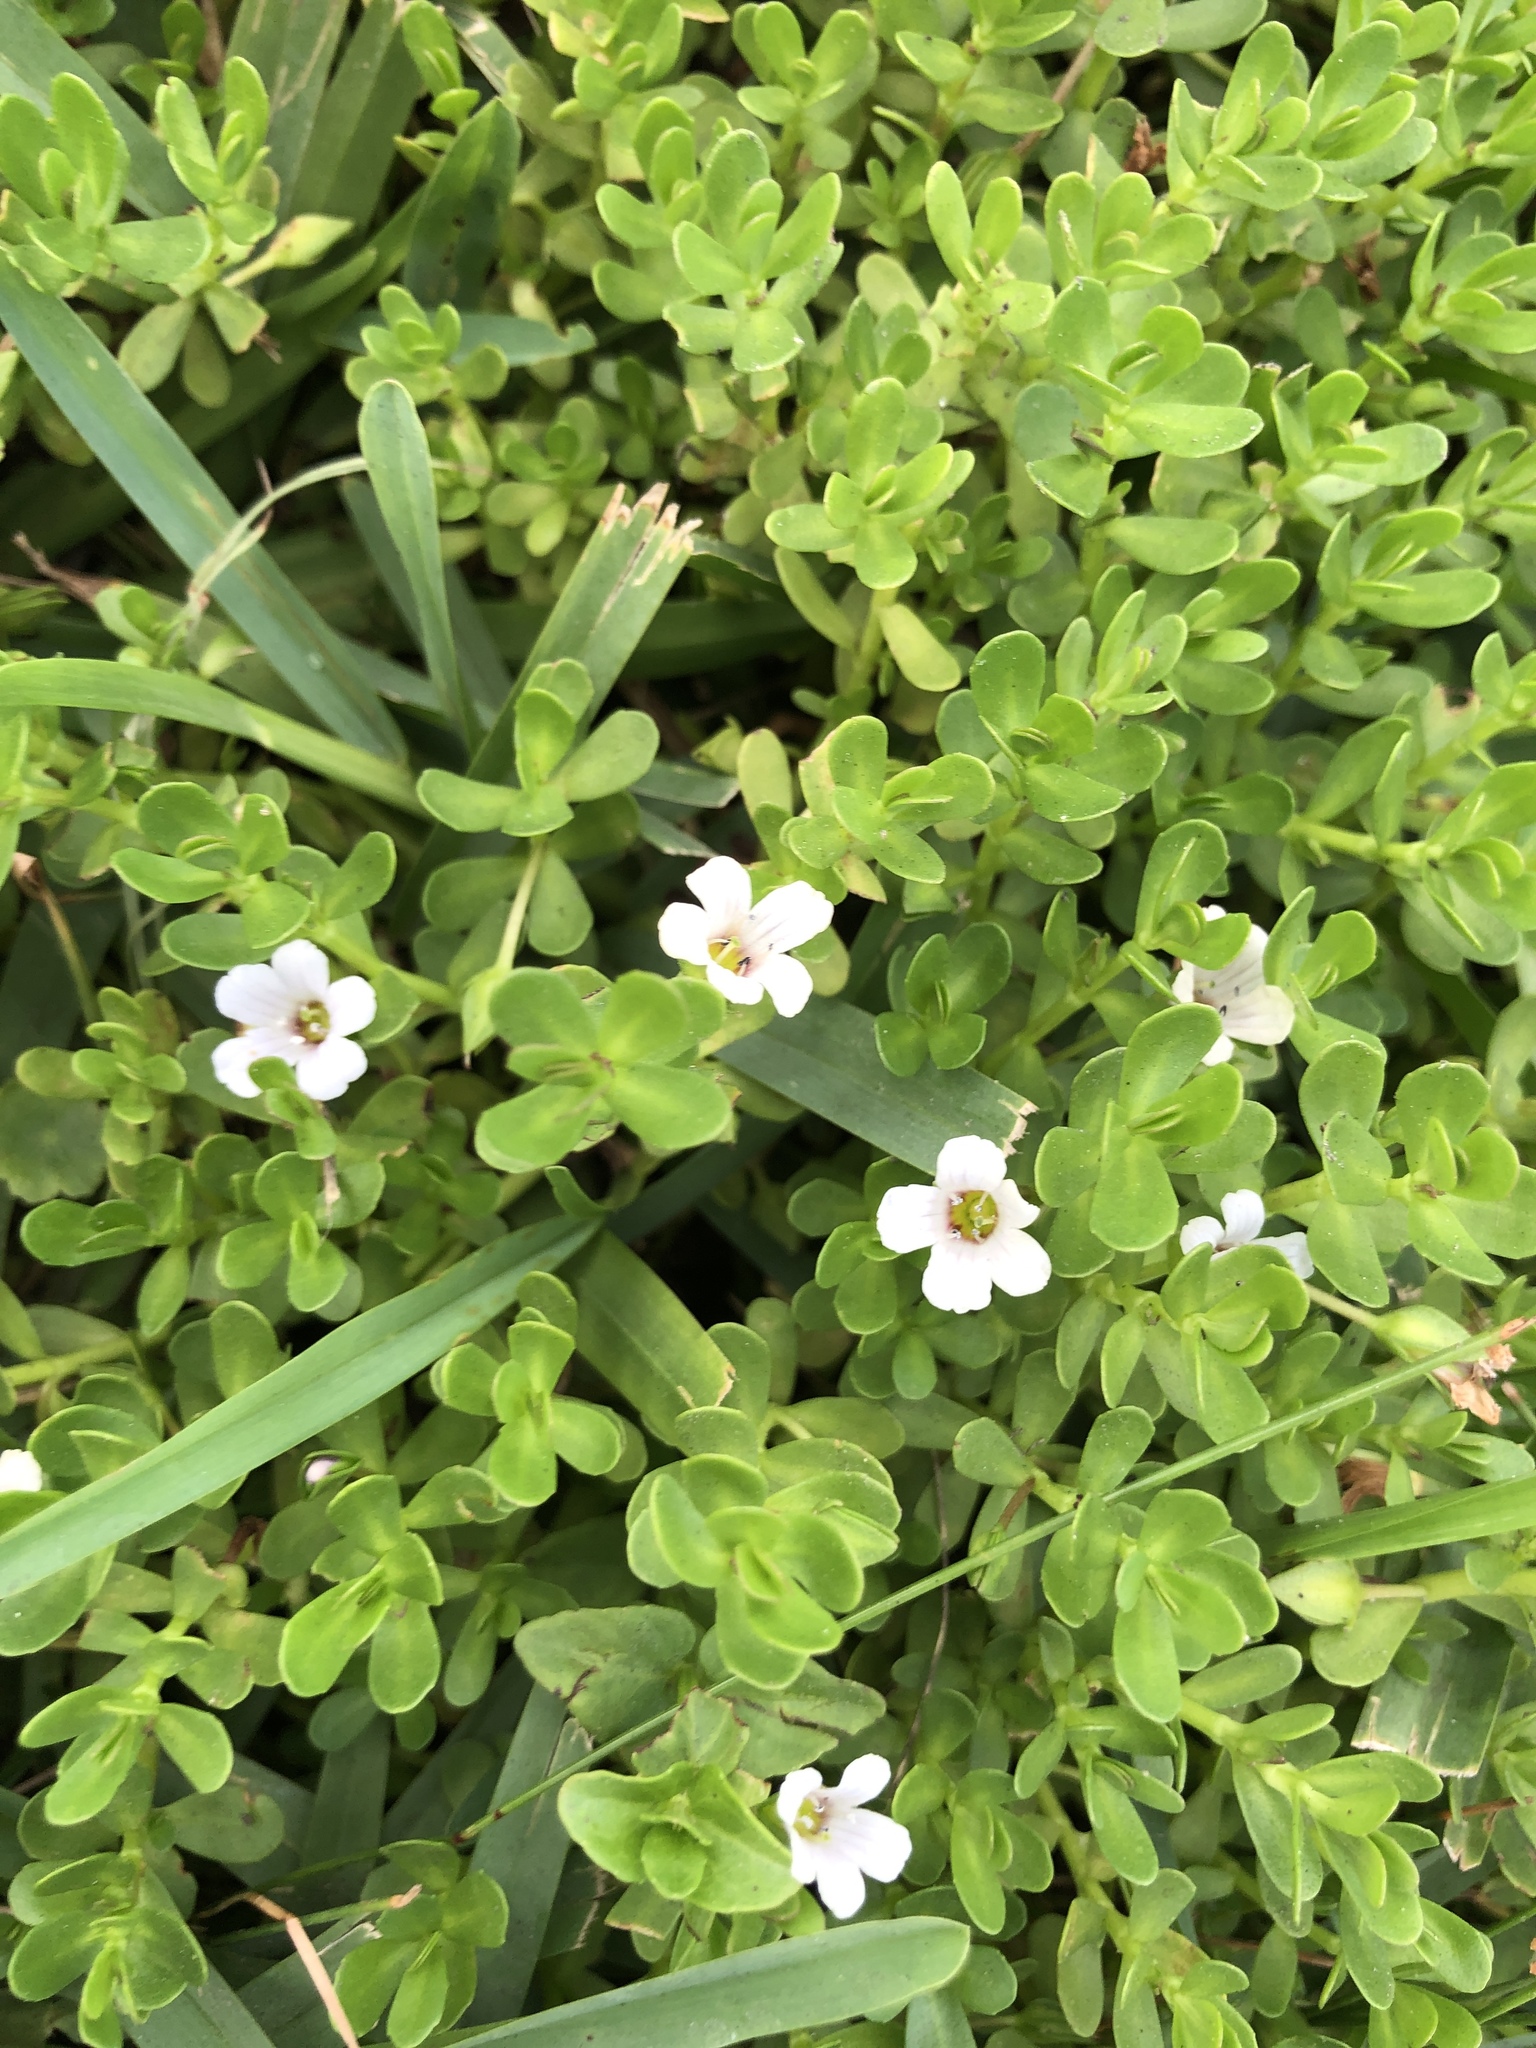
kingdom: Plantae
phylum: Tracheophyta
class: Magnoliopsida
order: Lamiales
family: Plantaginaceae
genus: Bacopa
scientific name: Bacopa monnieri
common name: Indian-pennywort
